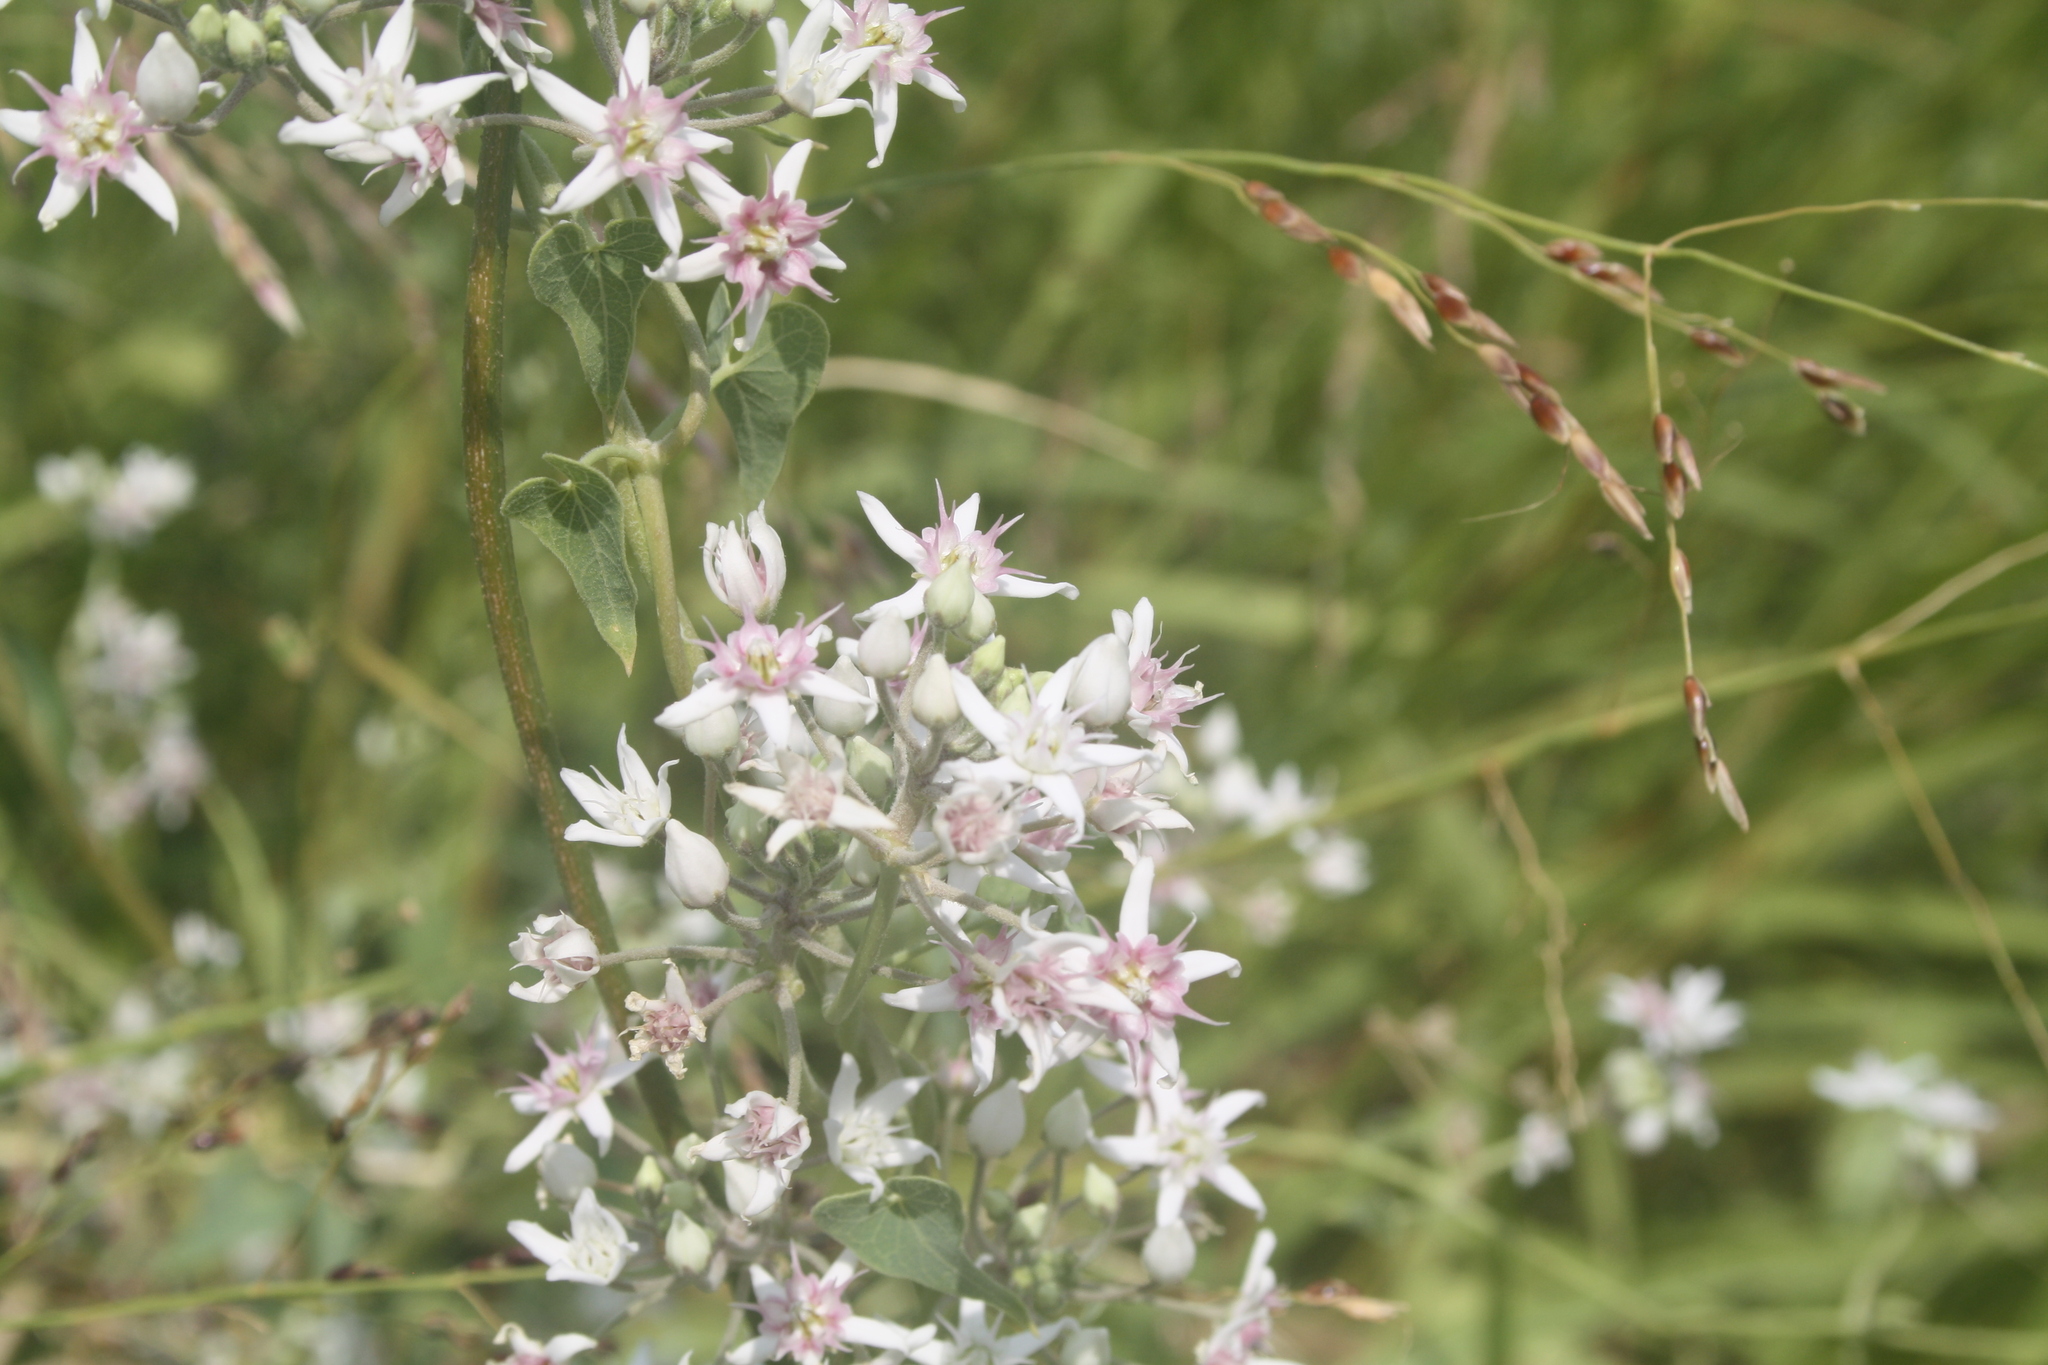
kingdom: Plantae
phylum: Tracheophyta
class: Magnoliopsida
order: Gentianales
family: Apocynaceae
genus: Cynanchum
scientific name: Cynanchum acutum
